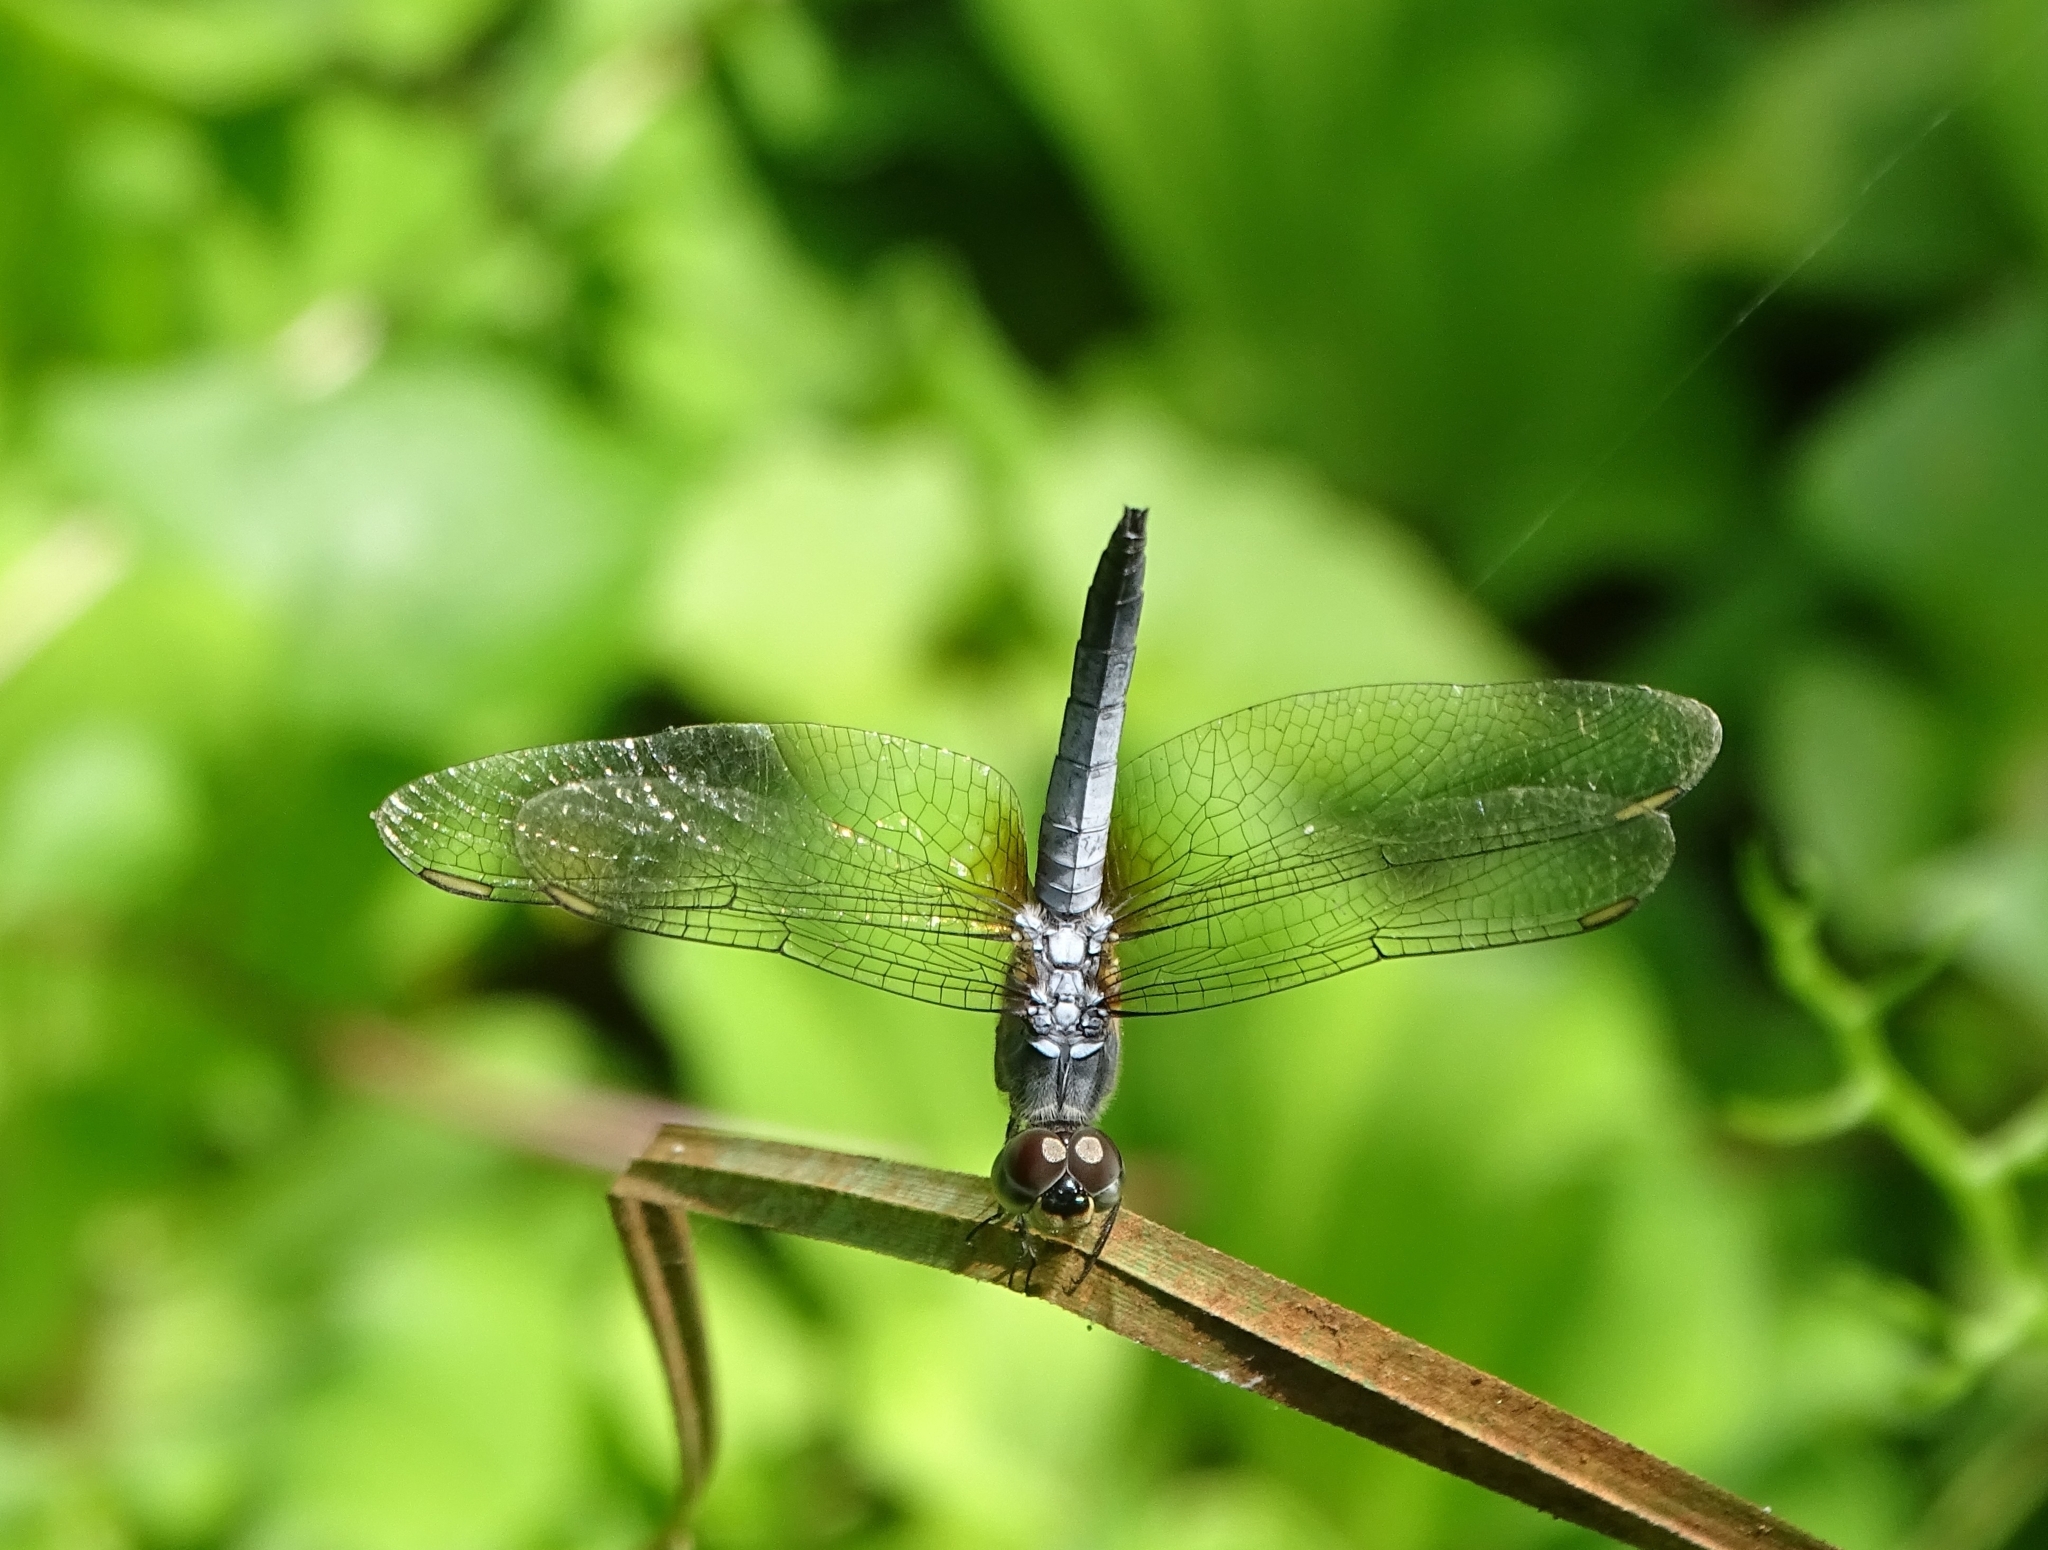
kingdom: Animalia
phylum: Arthropoda
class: Insecta
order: Odonata
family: Libellulidae
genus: Brachydiplax
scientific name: Brachydiplax chalybea
